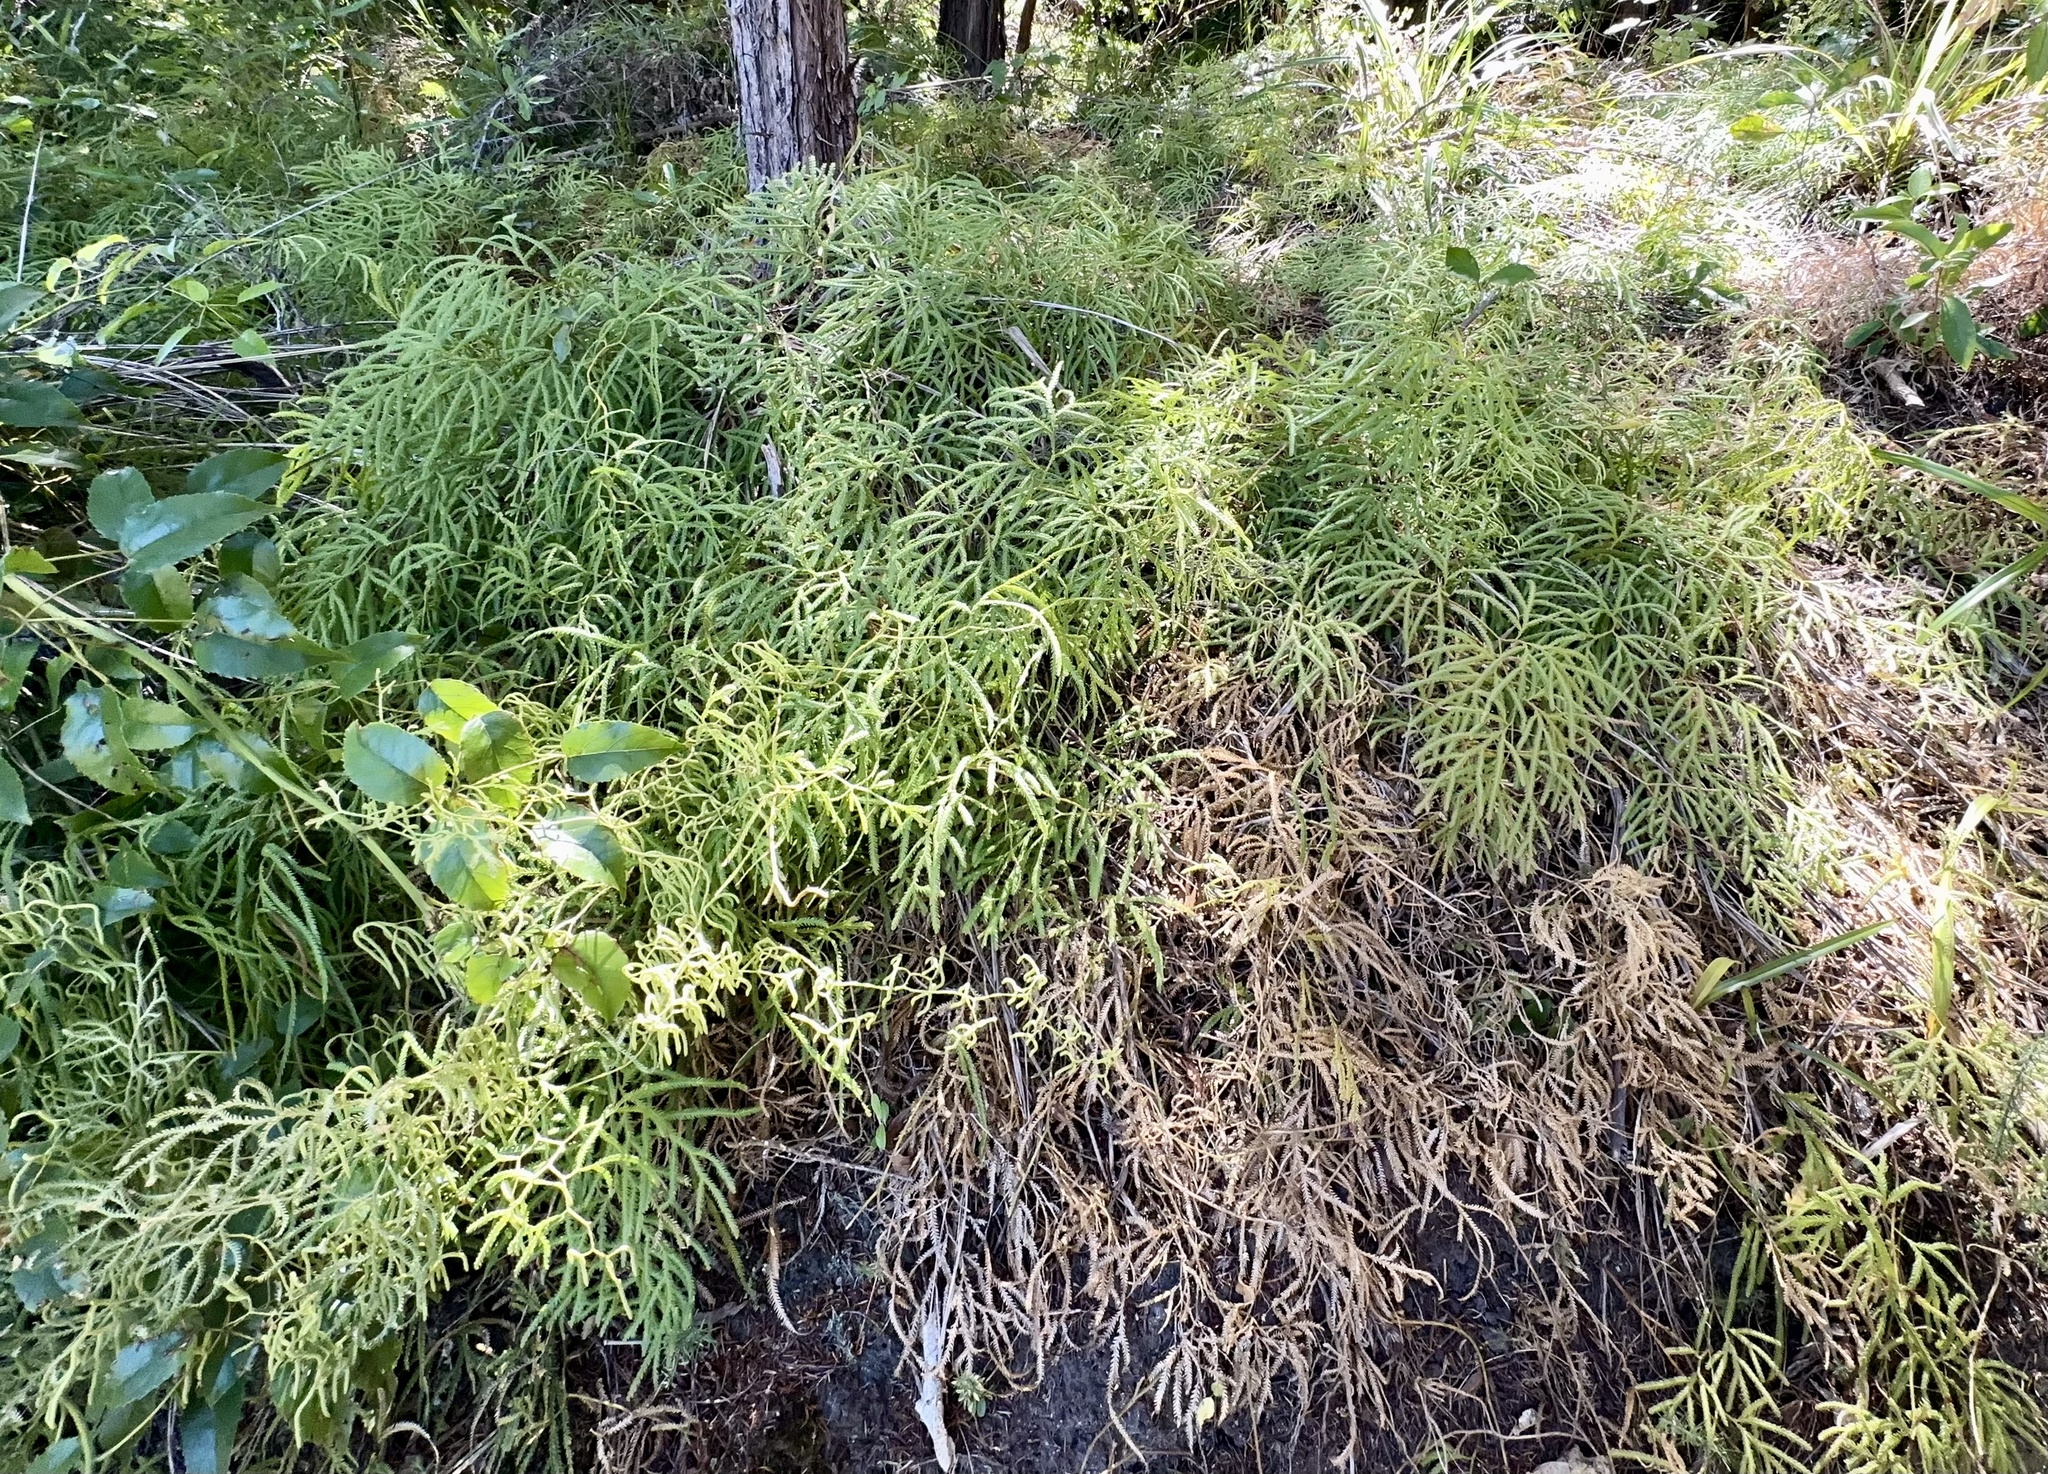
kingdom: Plantae
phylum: Tracheophyta
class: Lycopodiopsida
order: Lycopodiales
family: Lycopodiaceae
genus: Lycopodium
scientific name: Lycopodium volubile
